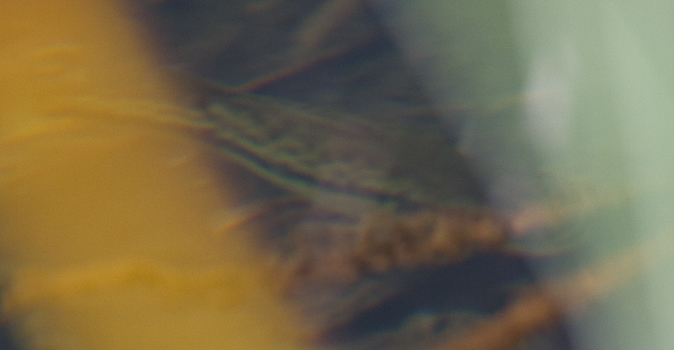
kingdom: Animalia
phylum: Chordata
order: Perciformes
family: Centrarchidae
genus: Micropterus
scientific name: Micropterus
